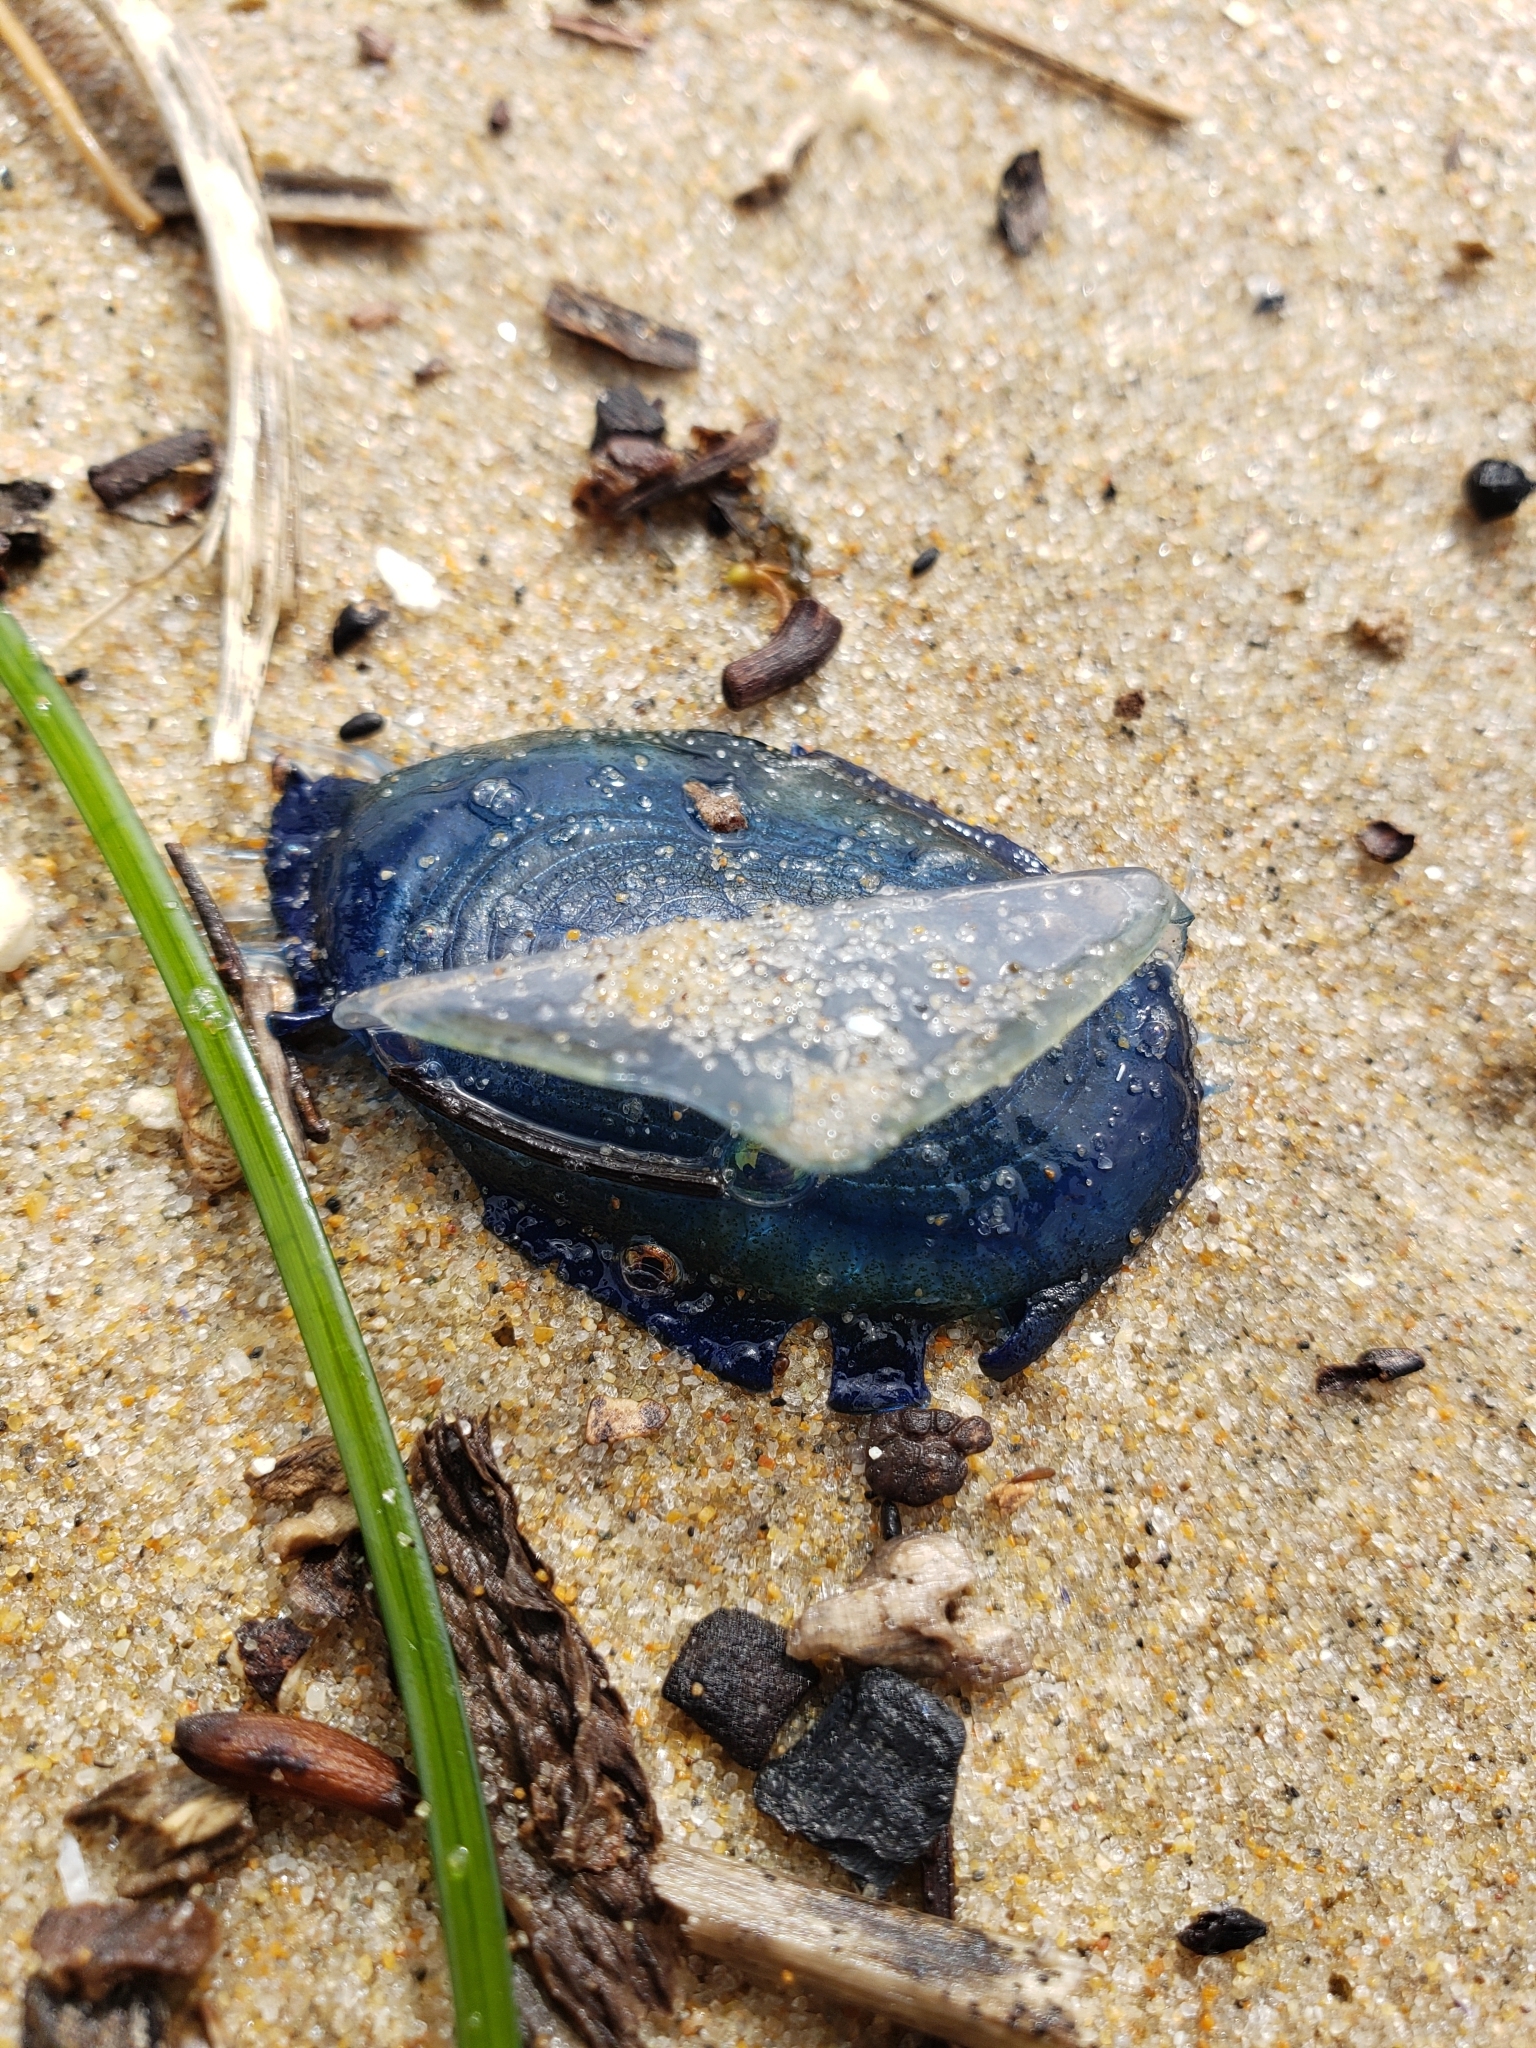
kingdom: Animalia
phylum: Cnidaria
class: Hydrozoa
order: Anthoathecata
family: Porpitidae
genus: Velella
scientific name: Velella velella
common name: By-the-wind-sailor
